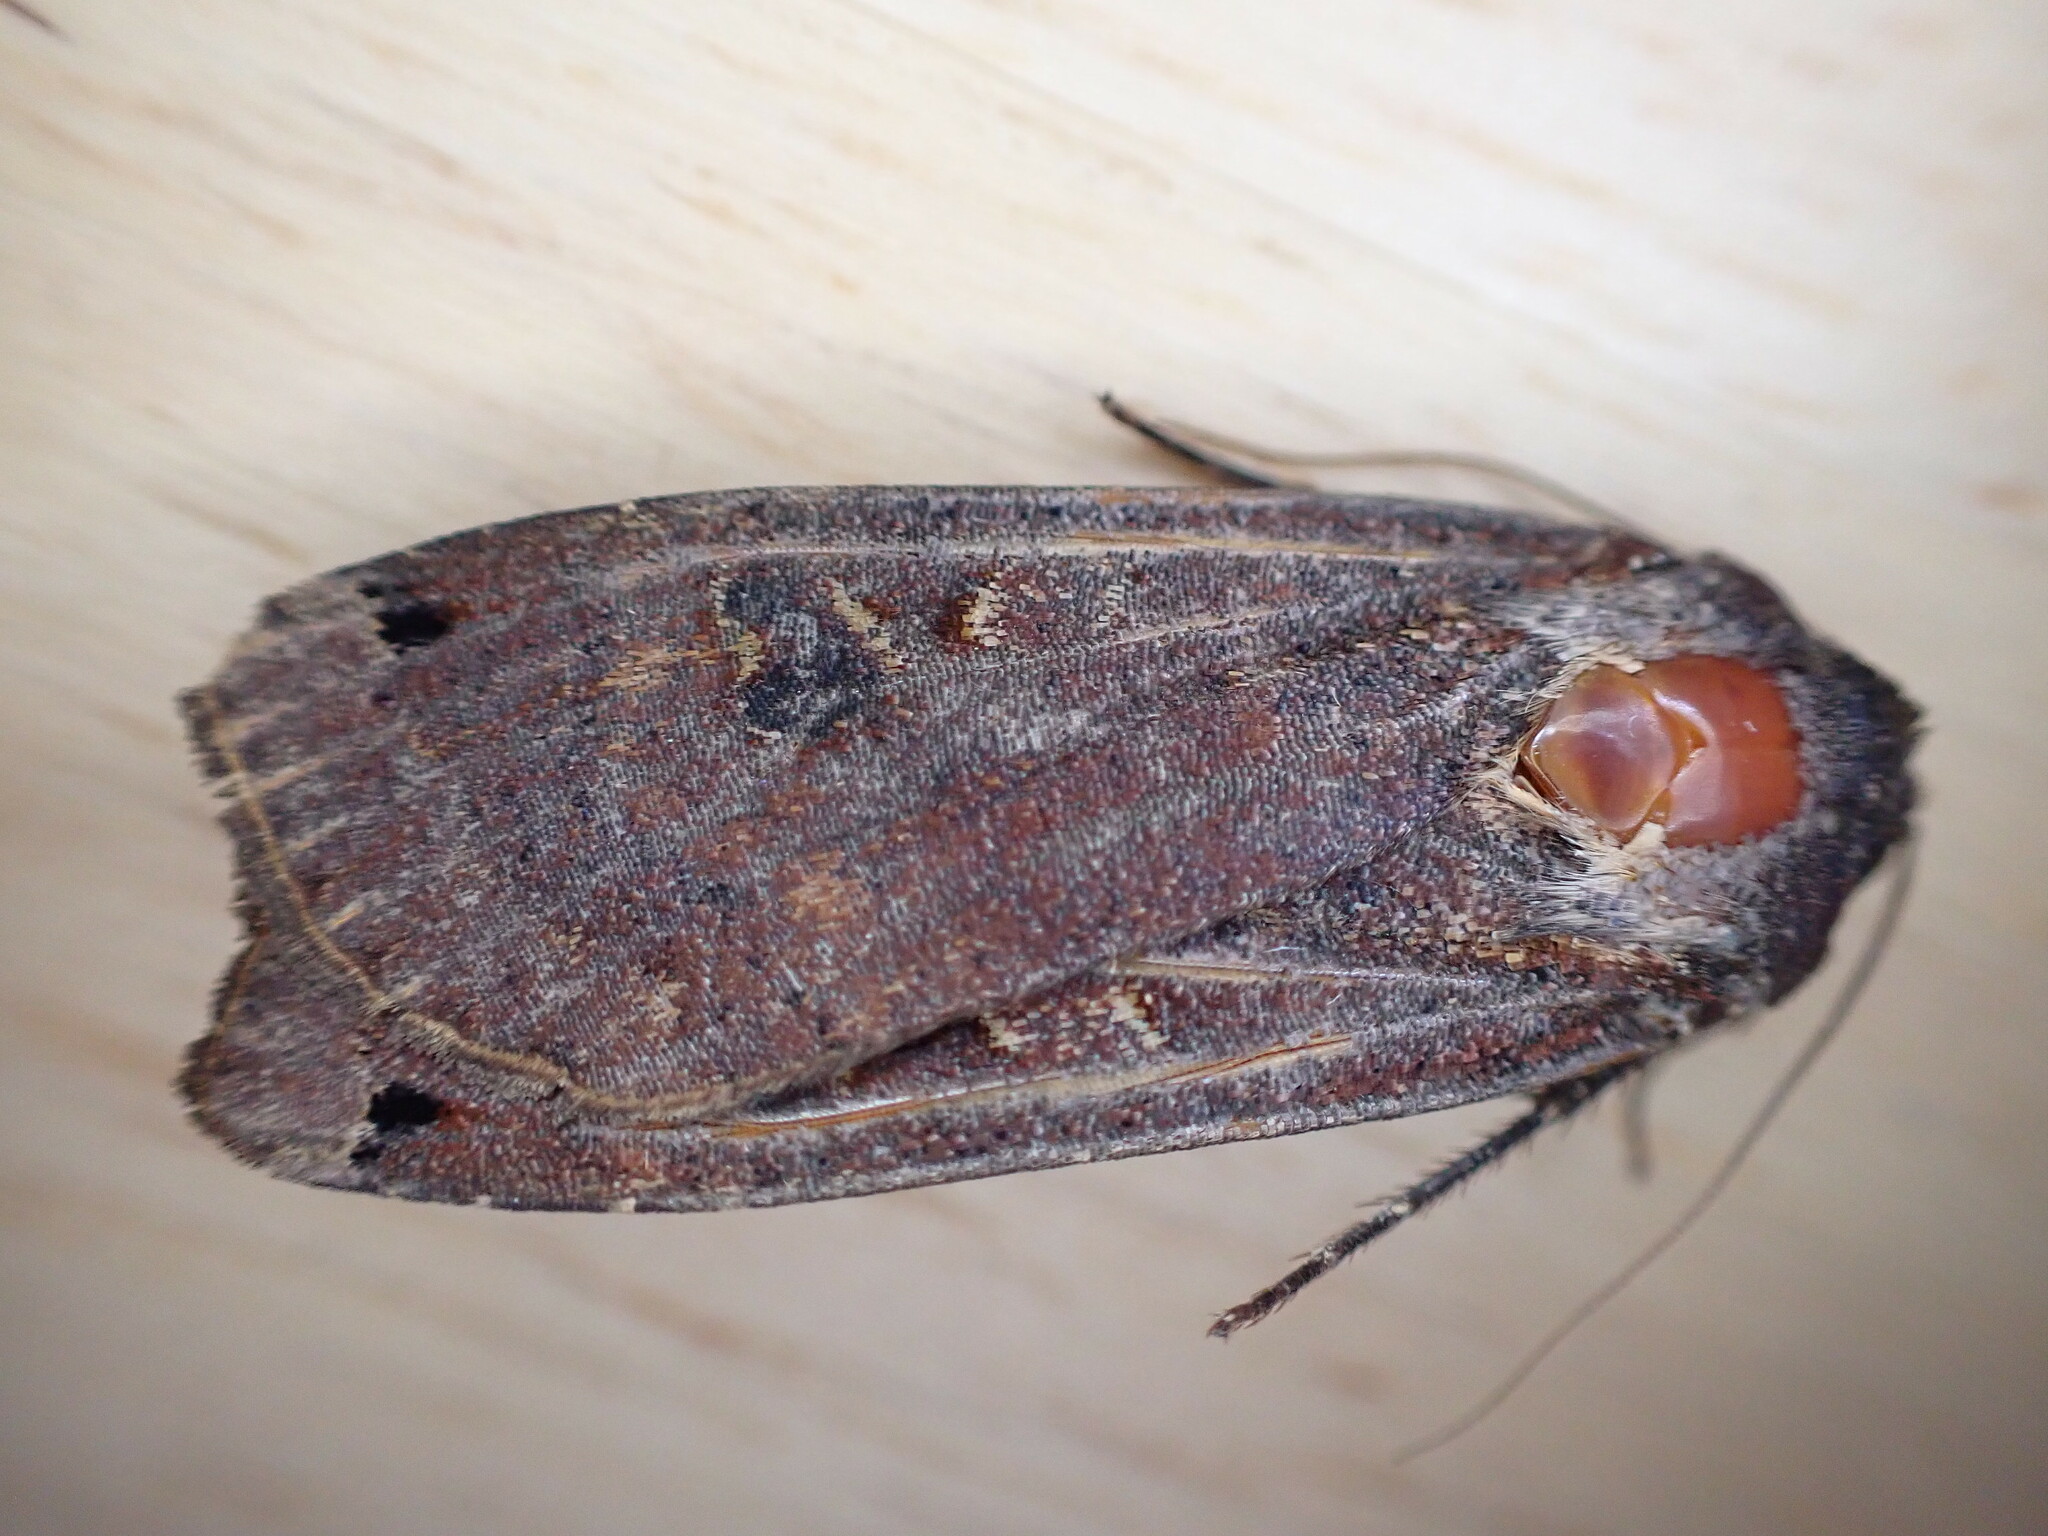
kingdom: Animalia
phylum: Arthropoda
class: Insecta
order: Lepidoptera
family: Noctuidae
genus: Noctua
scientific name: Noctua pronuba
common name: Large yellow underwing
